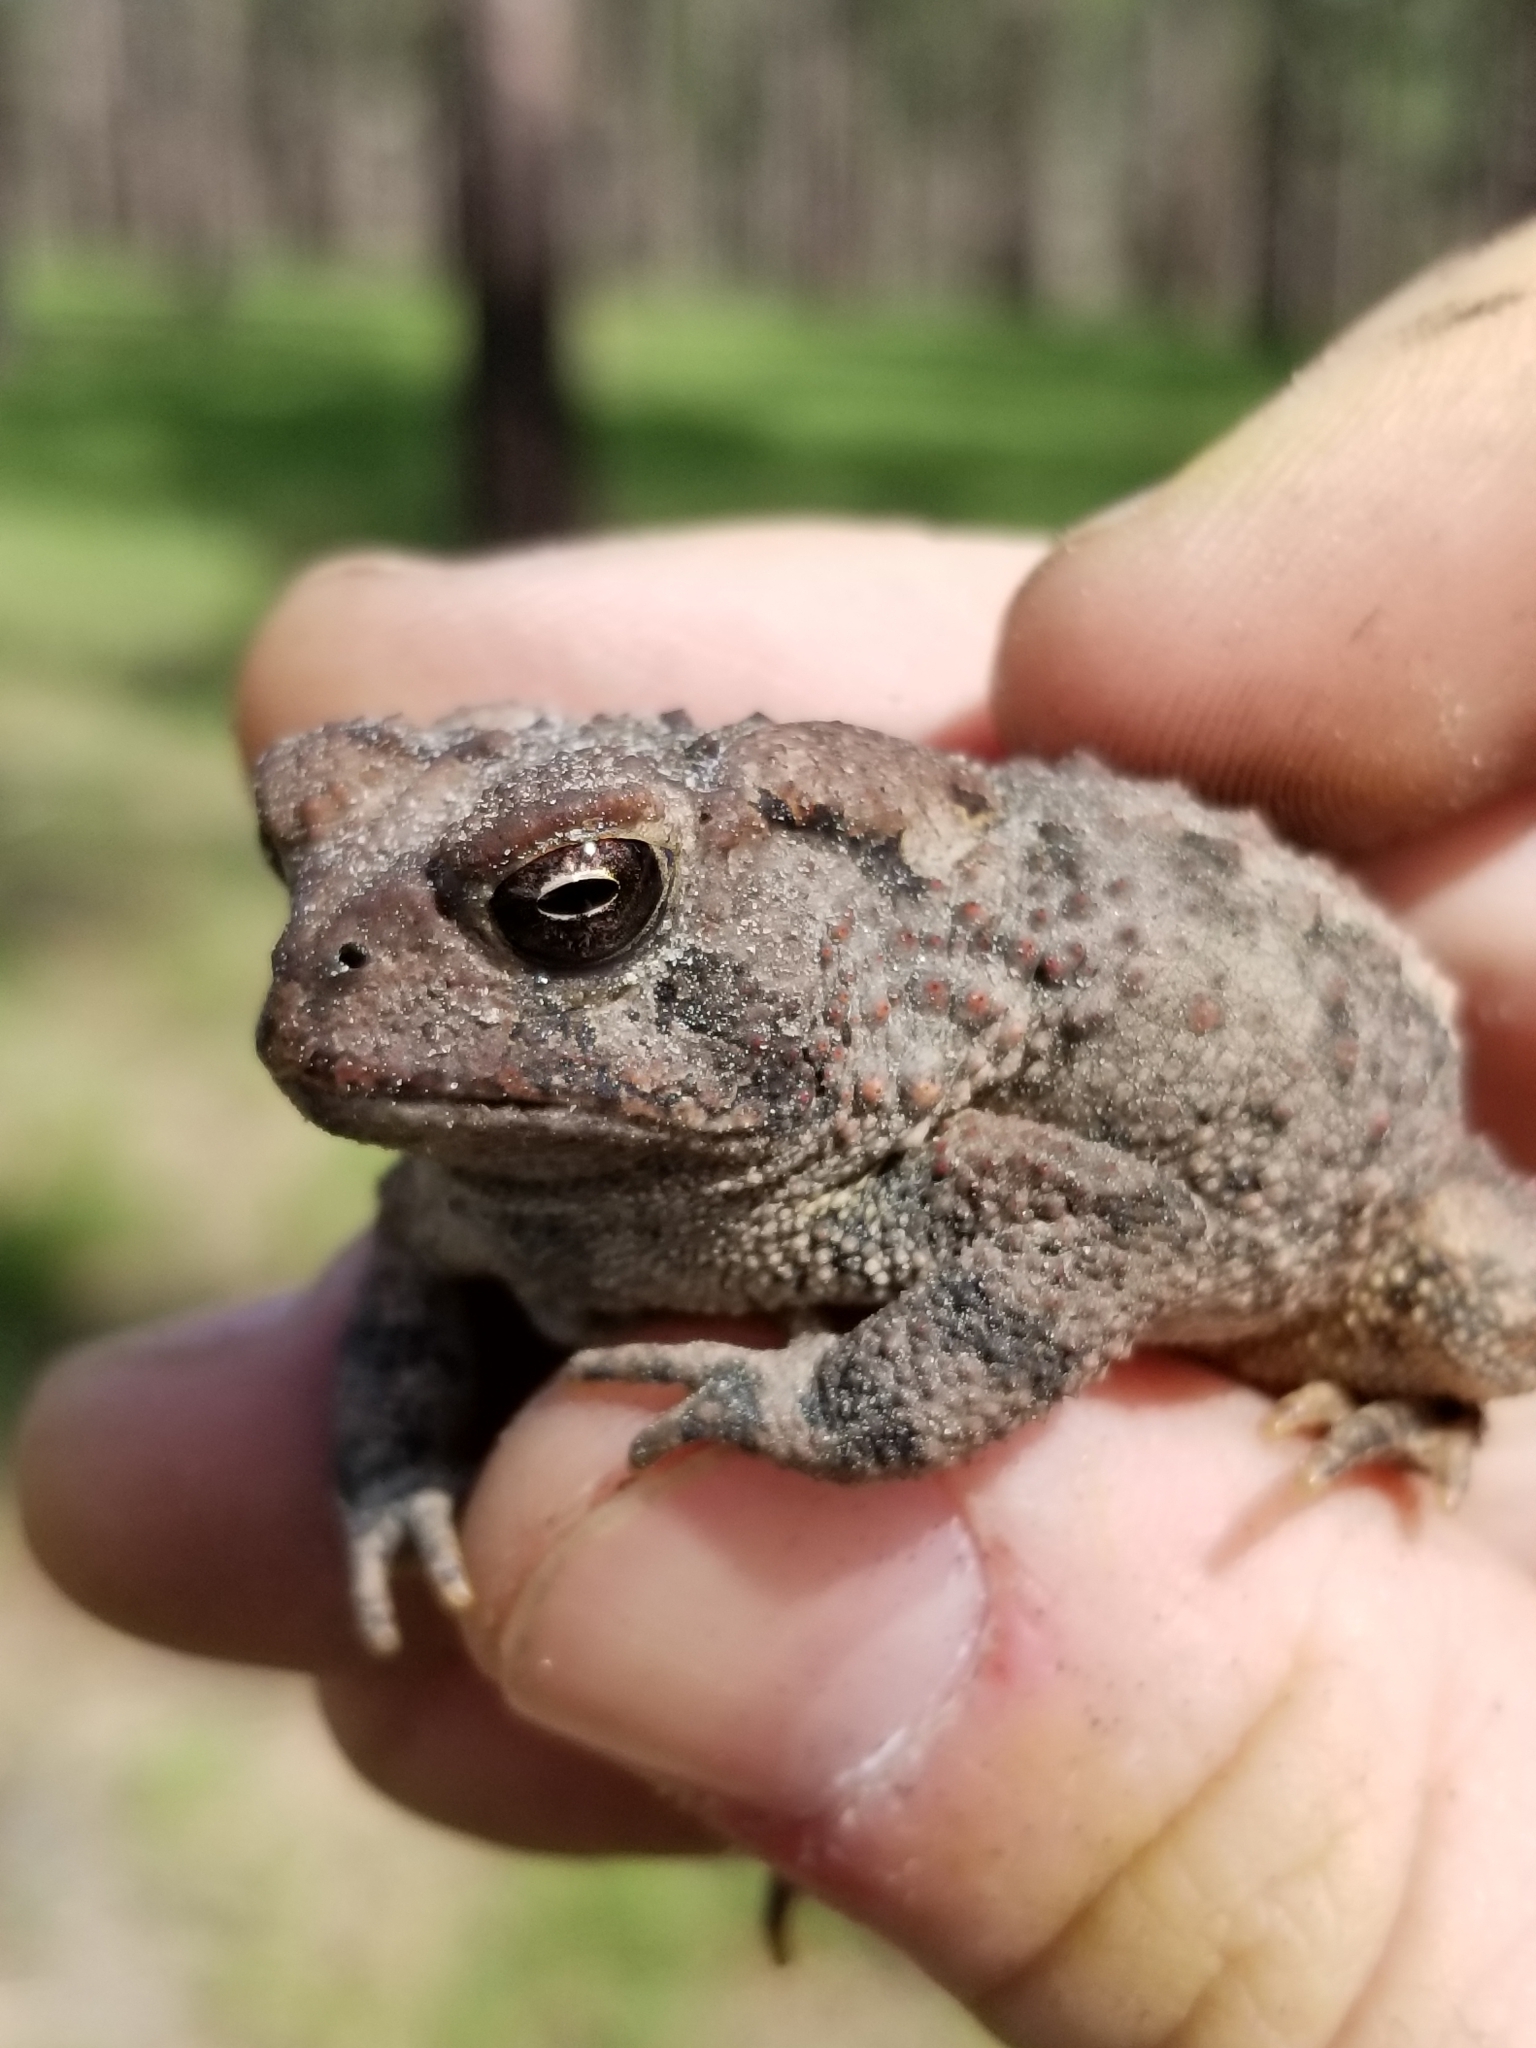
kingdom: Animalia
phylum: Chordata
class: Amphibia
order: Anura
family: Bufonidae
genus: Anaxyrus
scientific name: Anaxyrus fowleri
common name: Fowler's toad
